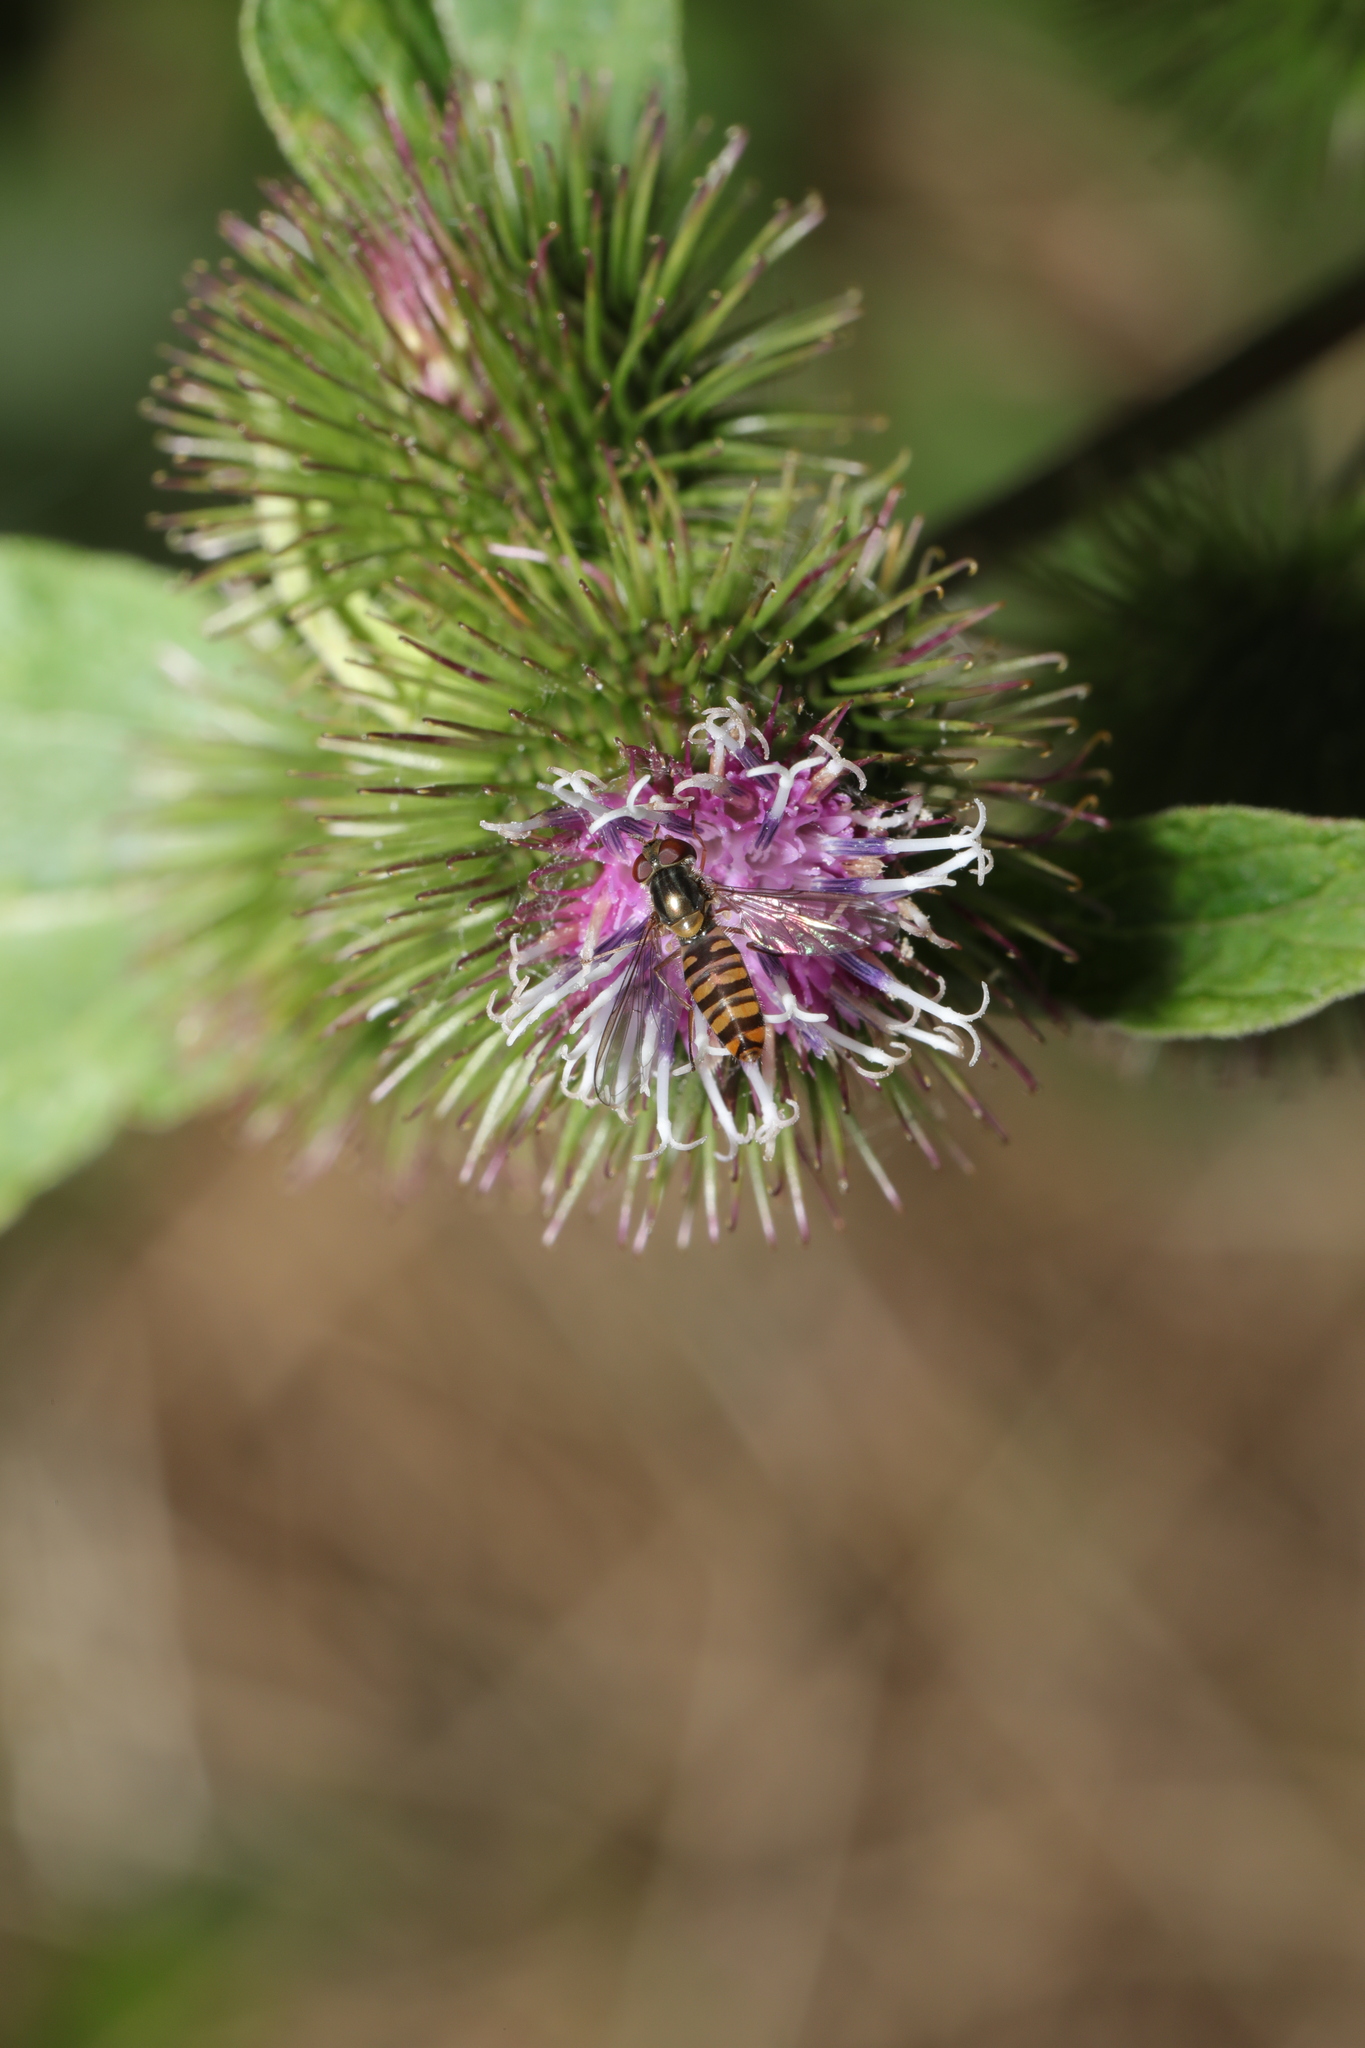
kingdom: Animalia
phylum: Arthropoda
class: Insecta
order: Diptera
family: Syrphidae
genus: Episyrphus
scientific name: Episyrphus balteatus
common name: Marmalade hoverfly
